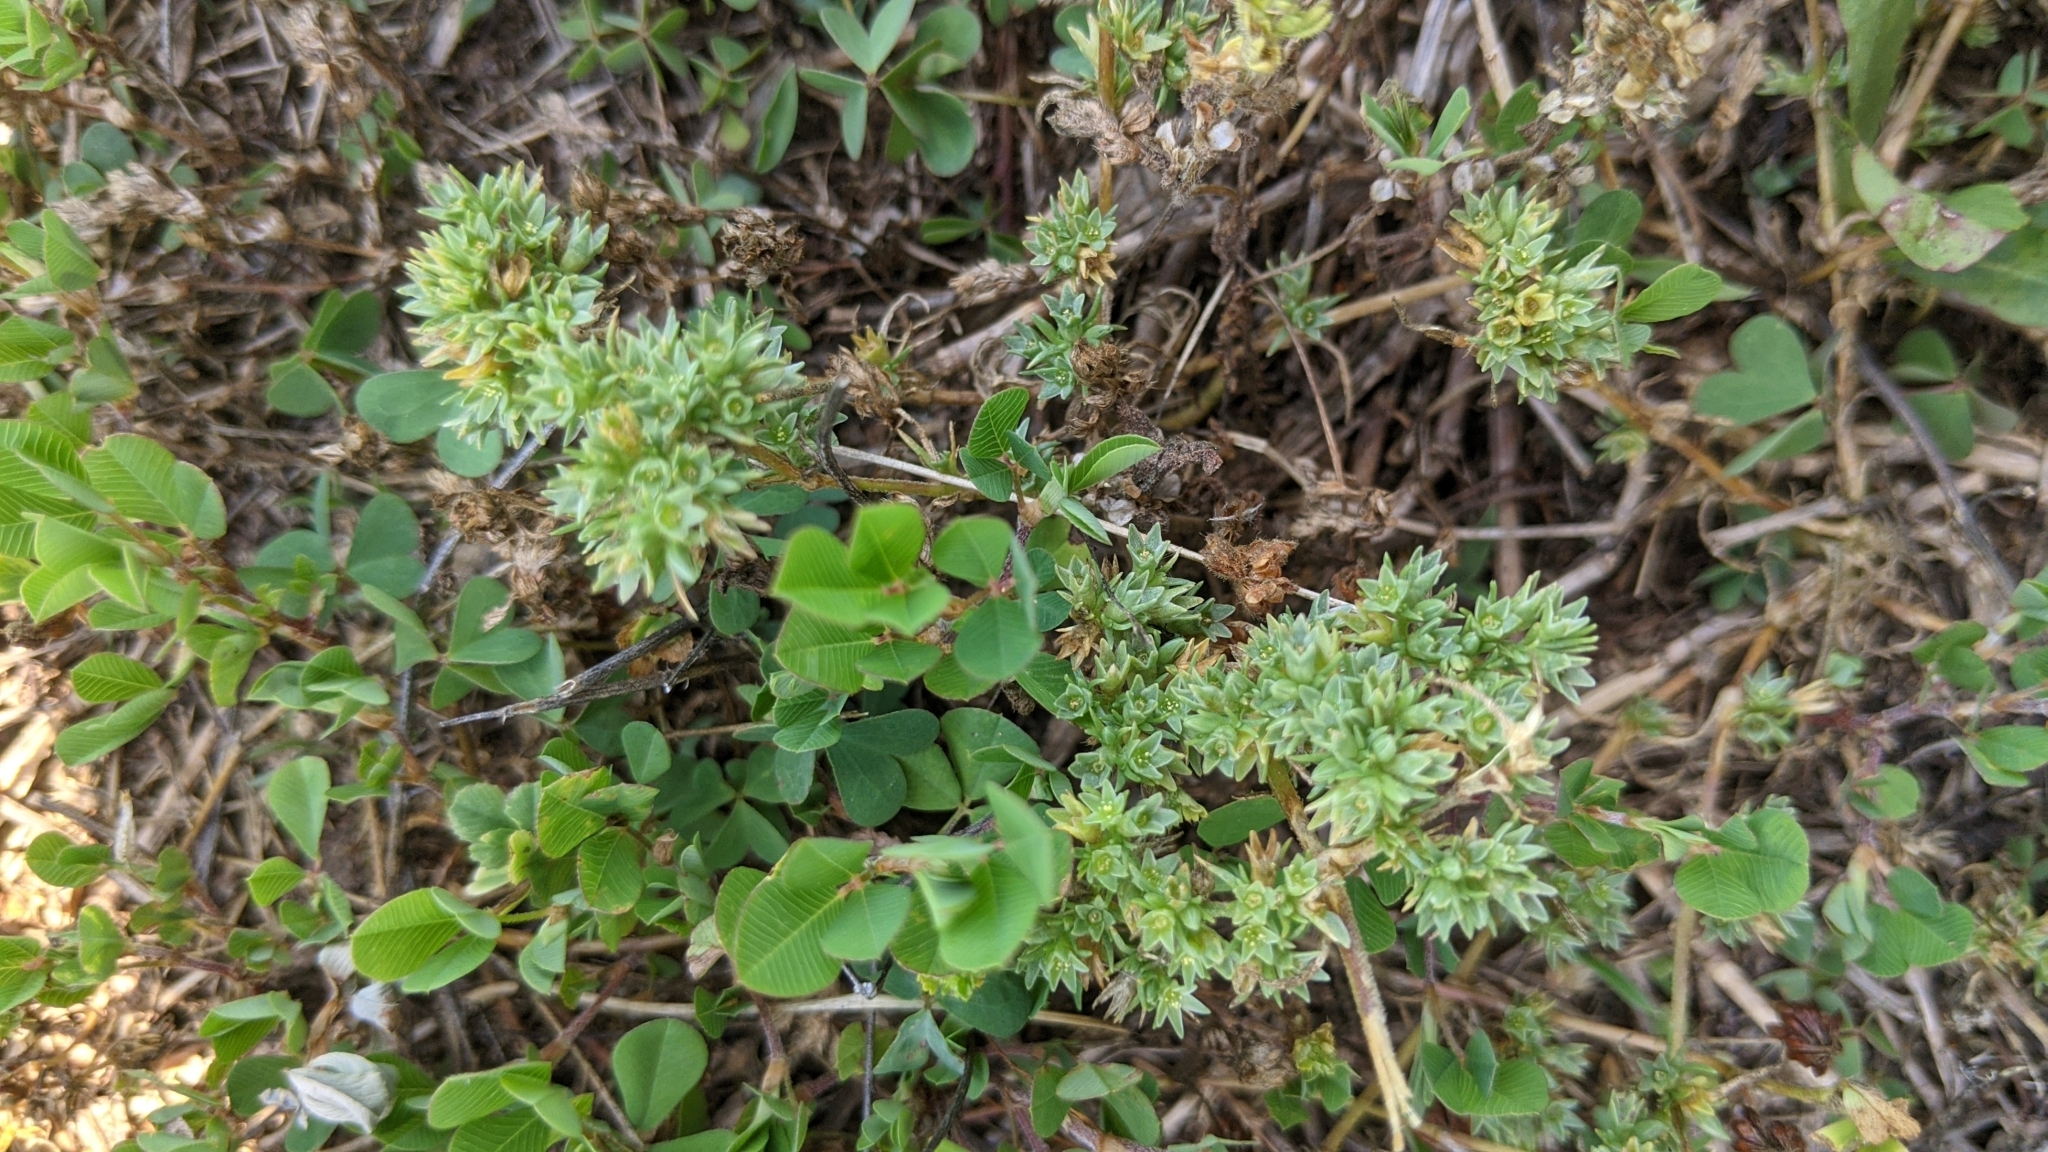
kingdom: Plantae
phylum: Tracheophyta
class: Magnoliopsida
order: Caryophyllales
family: Caryophyllaceae
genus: Scleranthus
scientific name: Scleranthus annuus
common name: Annual knawel
